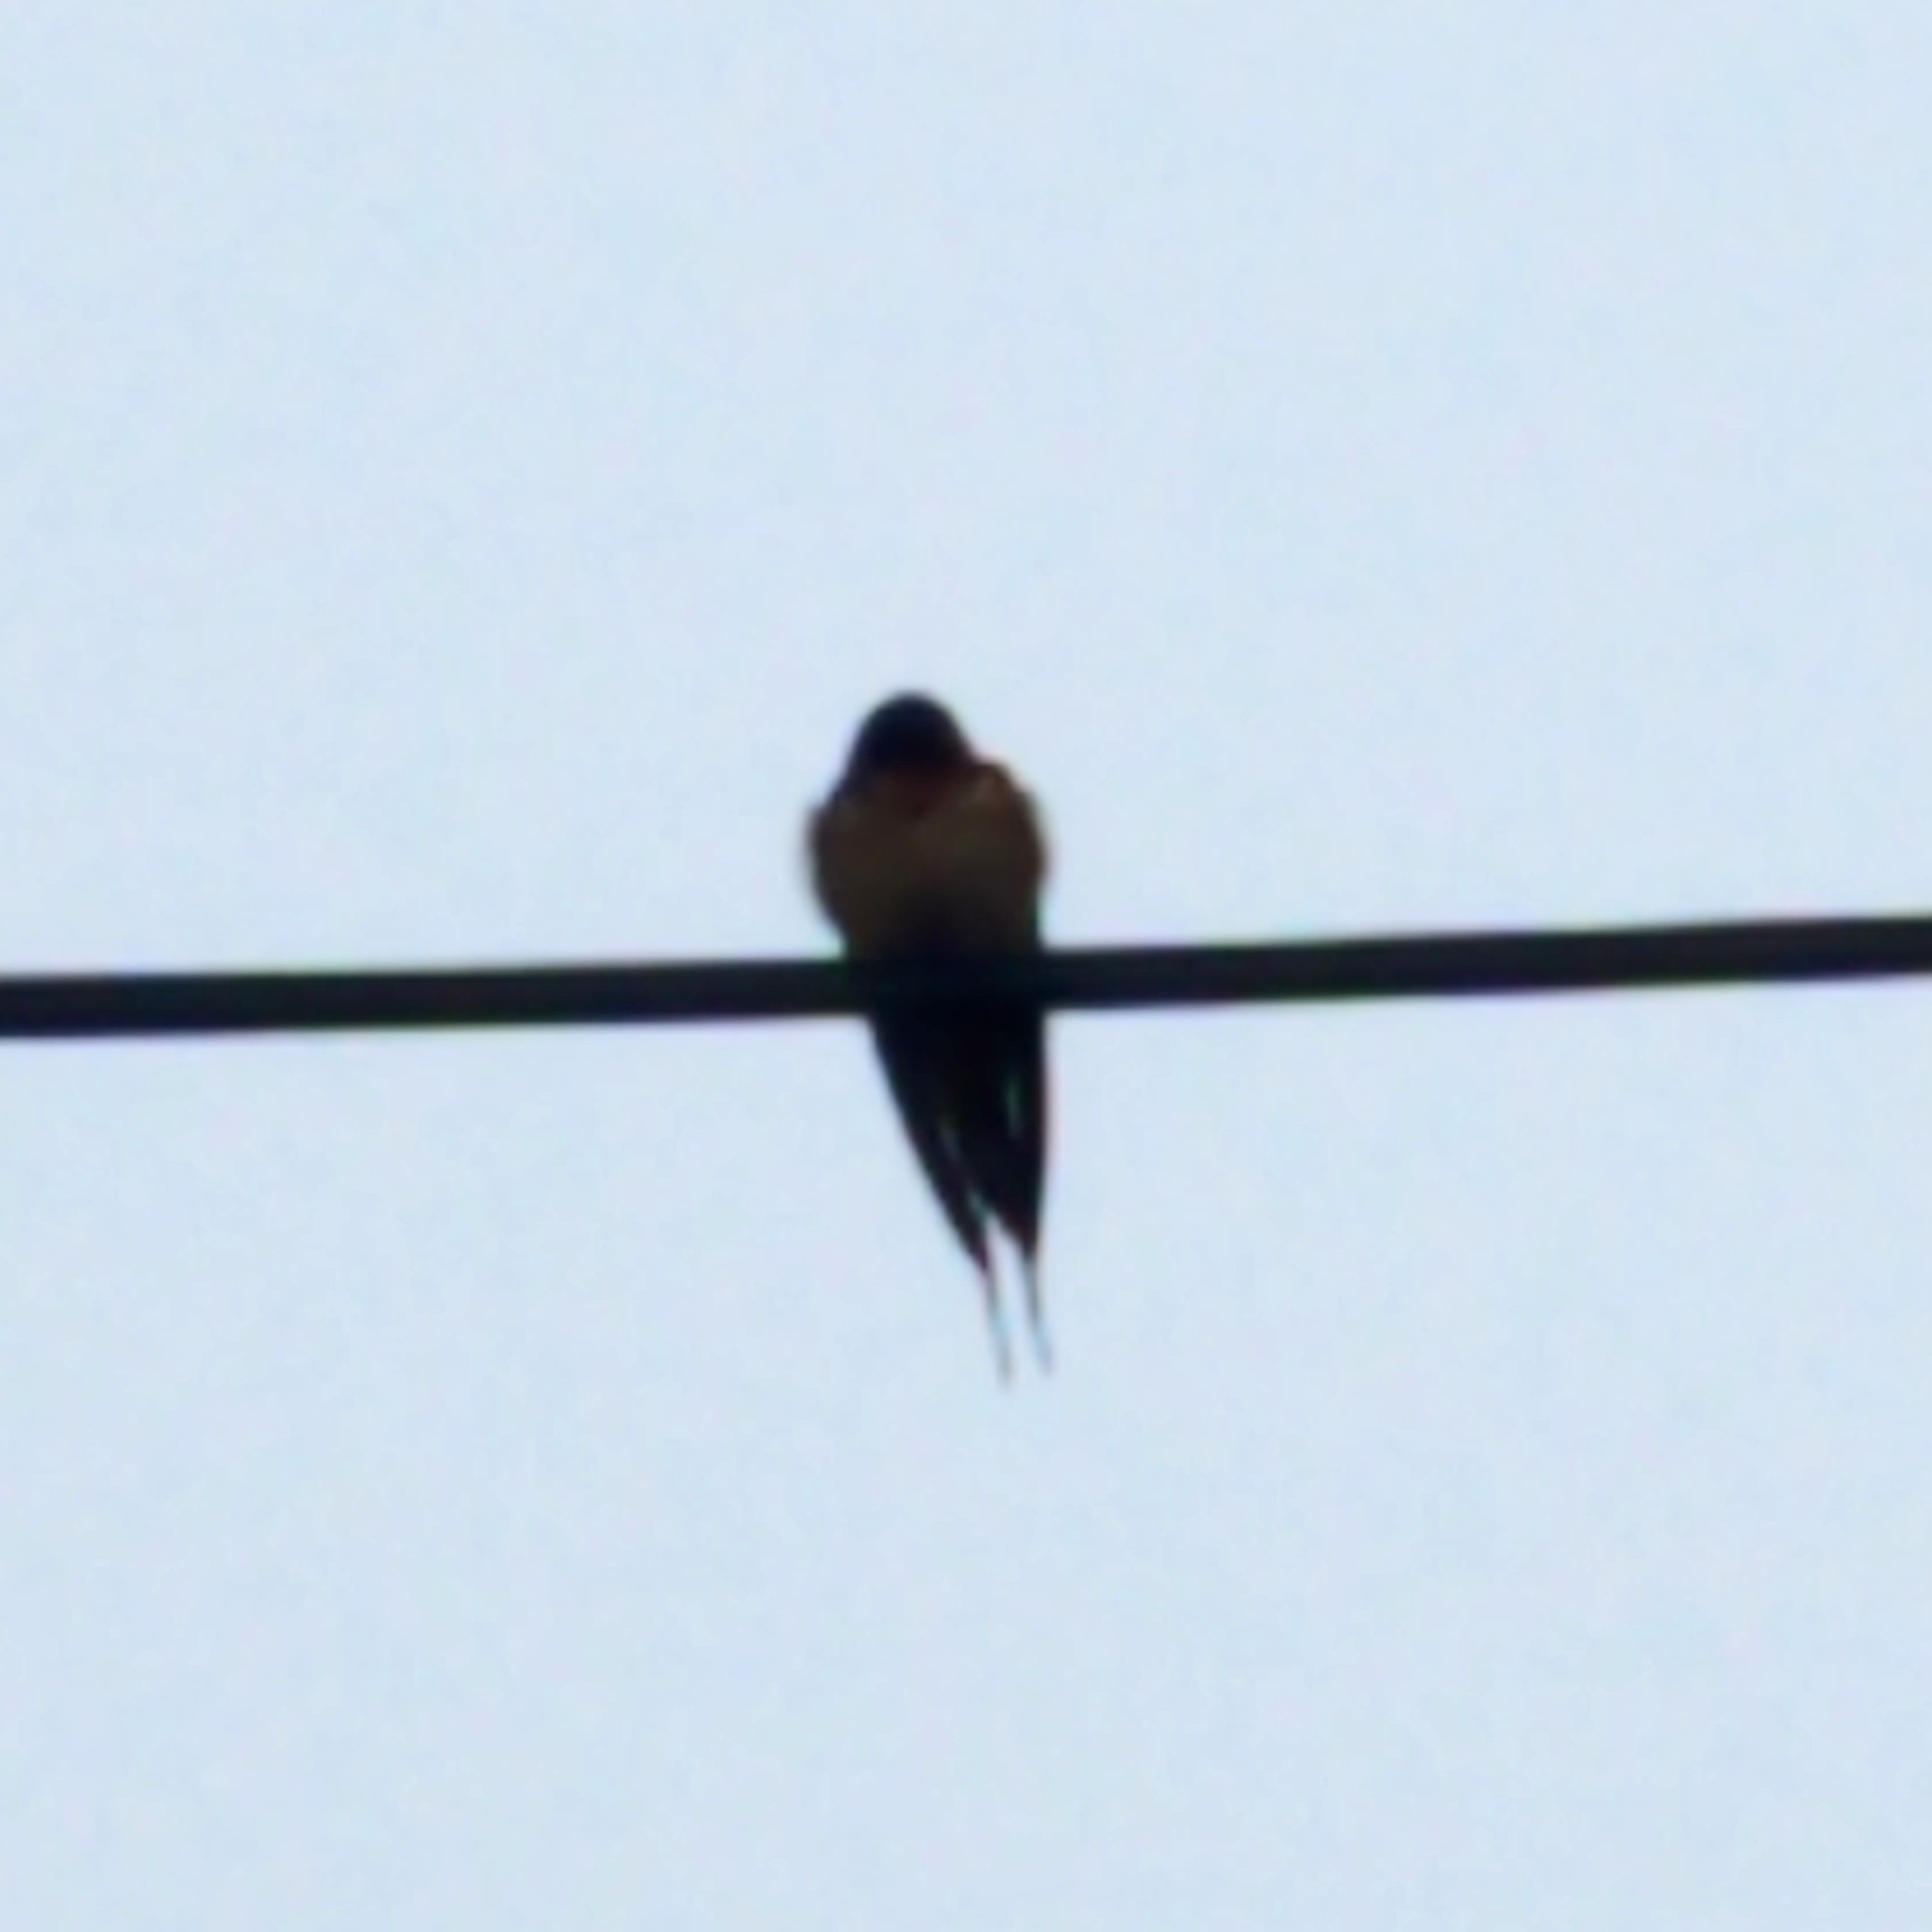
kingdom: Animalia
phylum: Chordata
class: Aves
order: Passeriformes
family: Hirundinidae
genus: Hirundo
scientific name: Hirundo rustica
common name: Barn swallow
